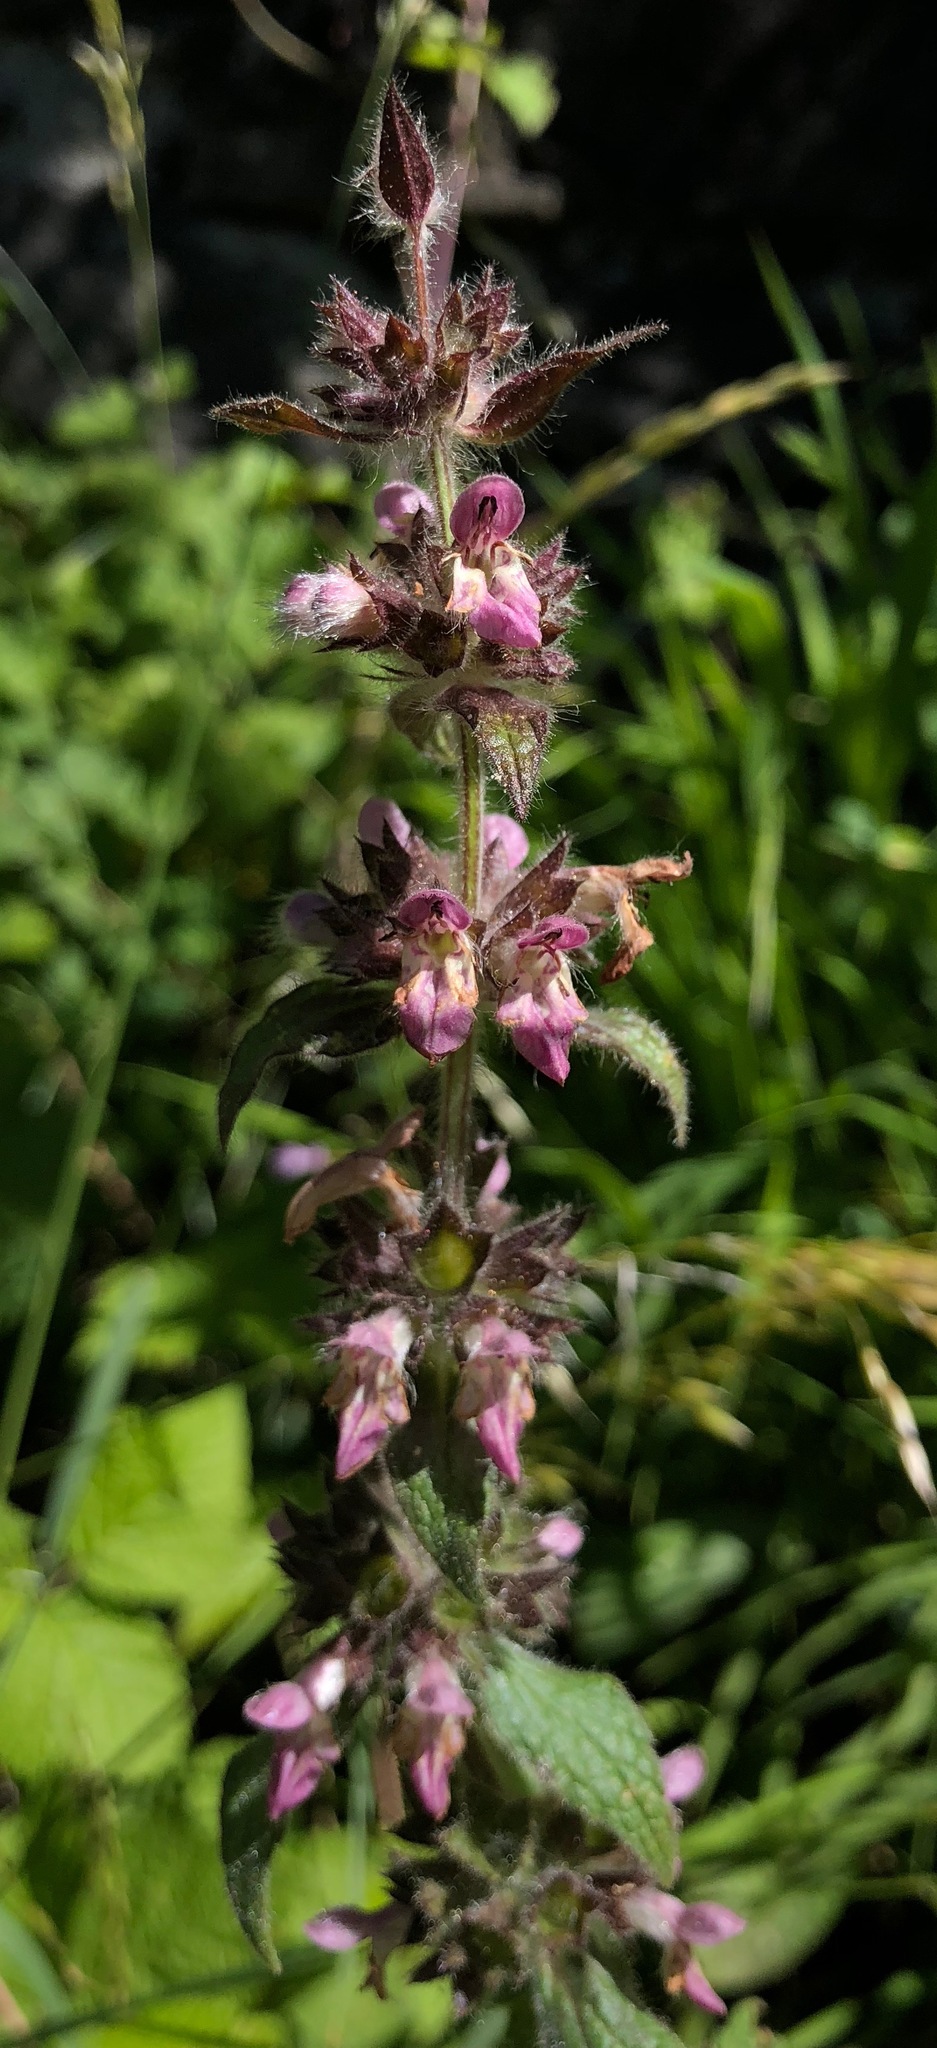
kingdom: Plantae
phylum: Tracheophyta
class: Magnoliopsida
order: Lamiales
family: Lamiaceae
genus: Stachys
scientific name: Stachys alpina
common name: Limestone woundwort
